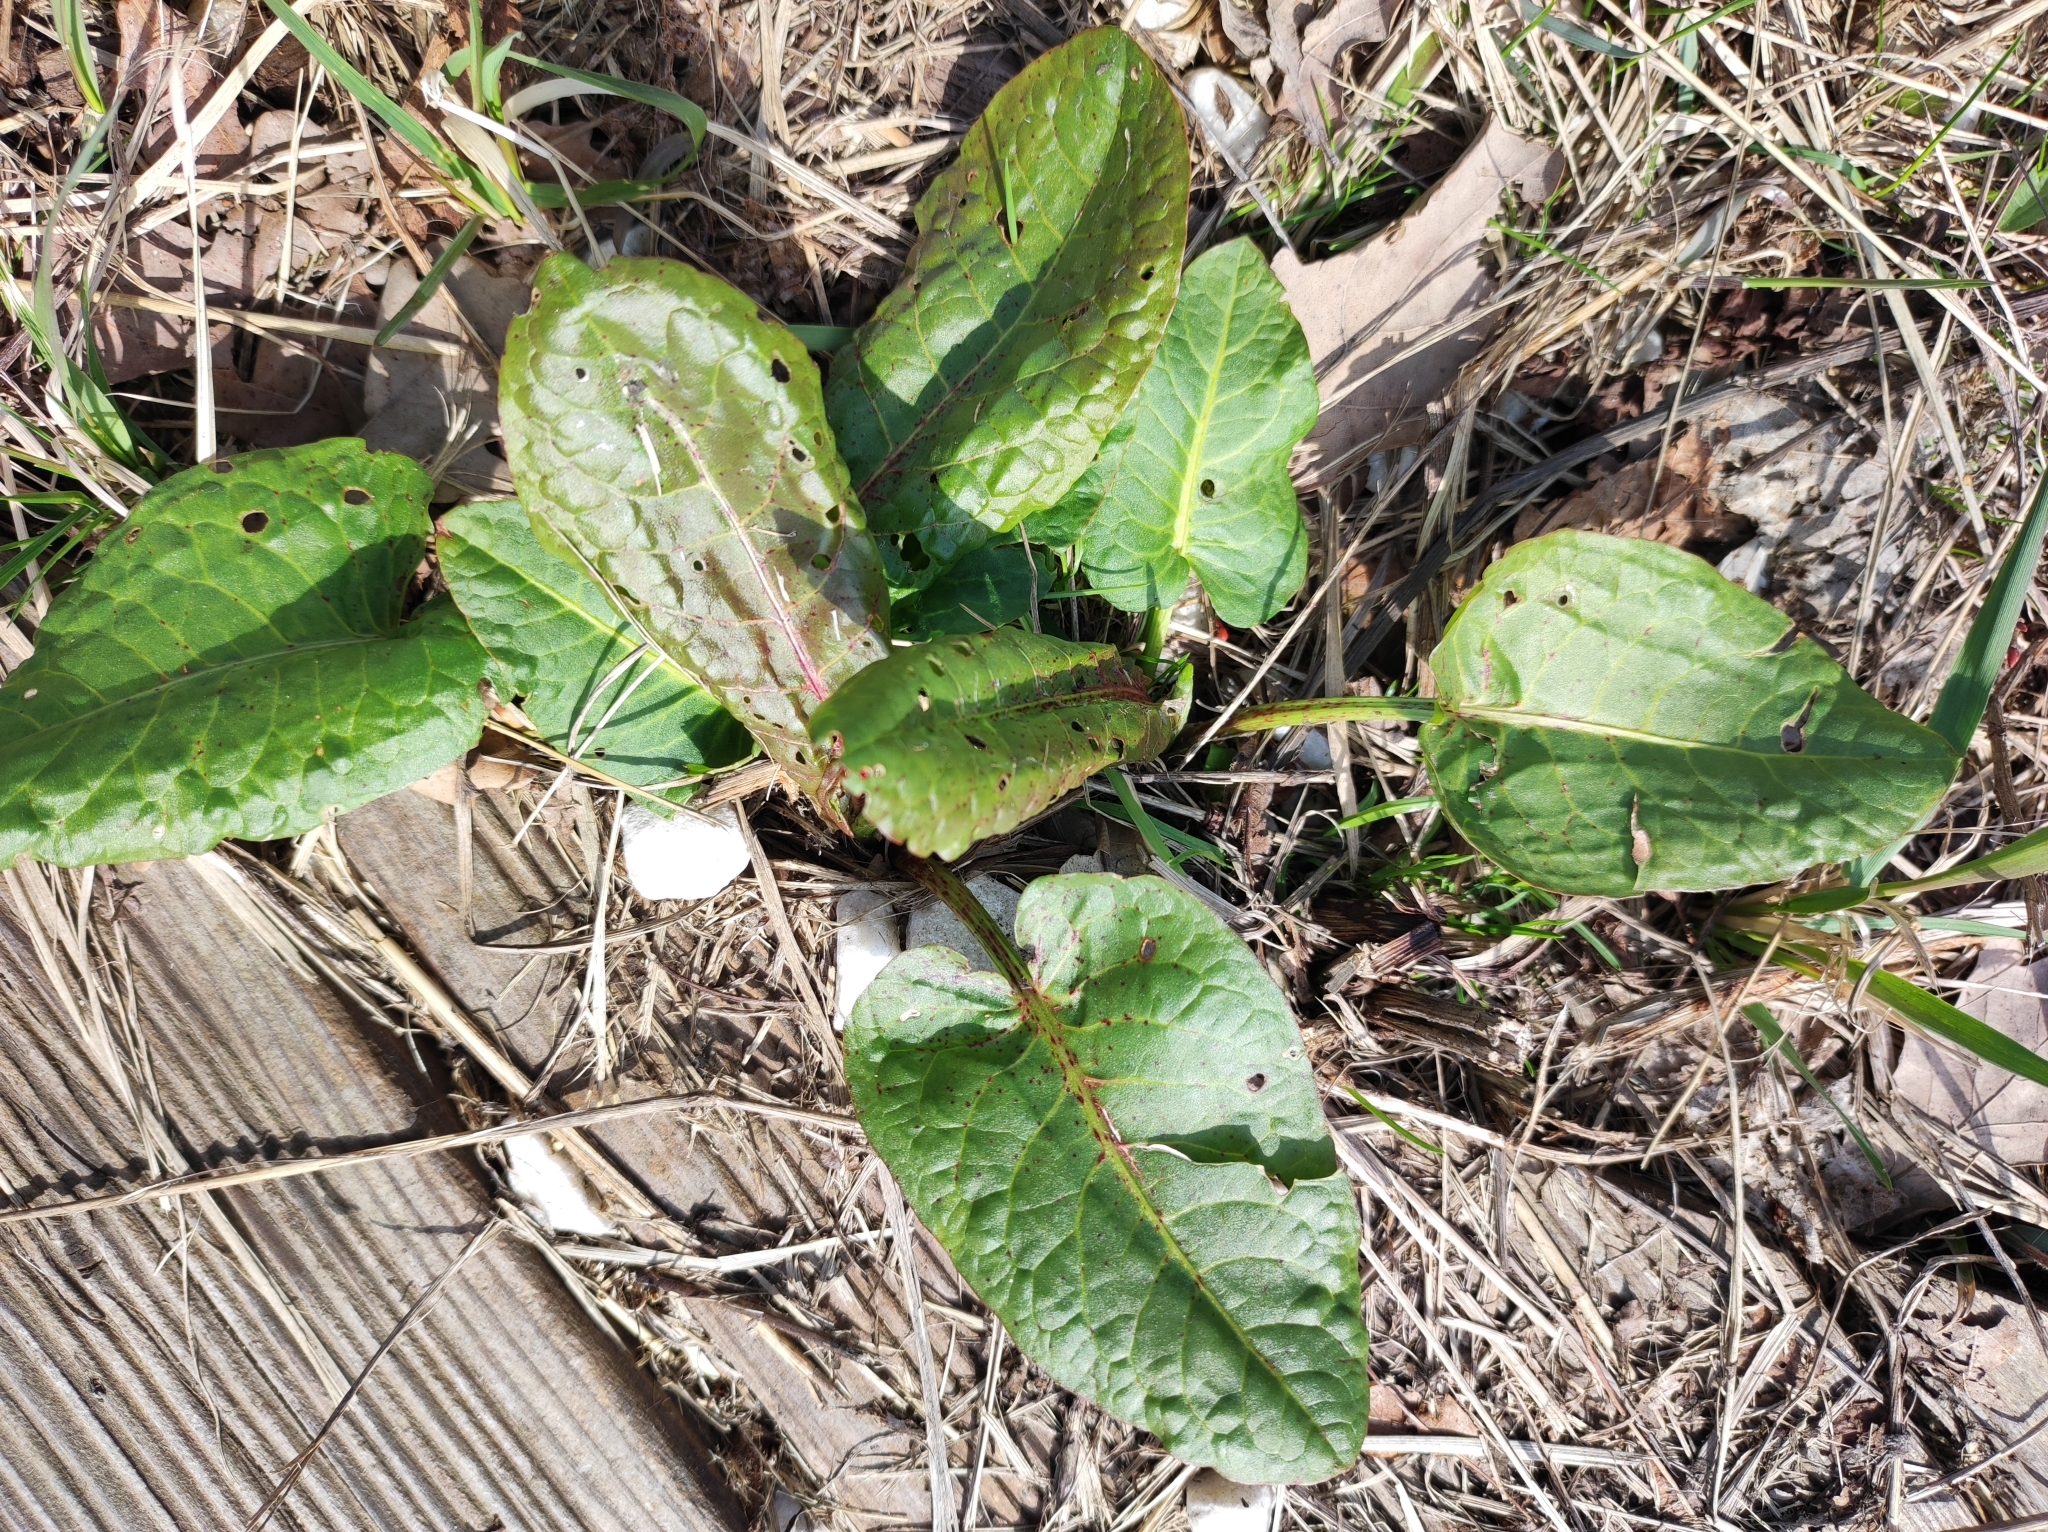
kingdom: Plantae
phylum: Tracheophyta
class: Magnoliopsida
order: Caryophyllales
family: Polygonaceae
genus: Rumex
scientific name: Rumex obtusifolius
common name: Bitter dock
